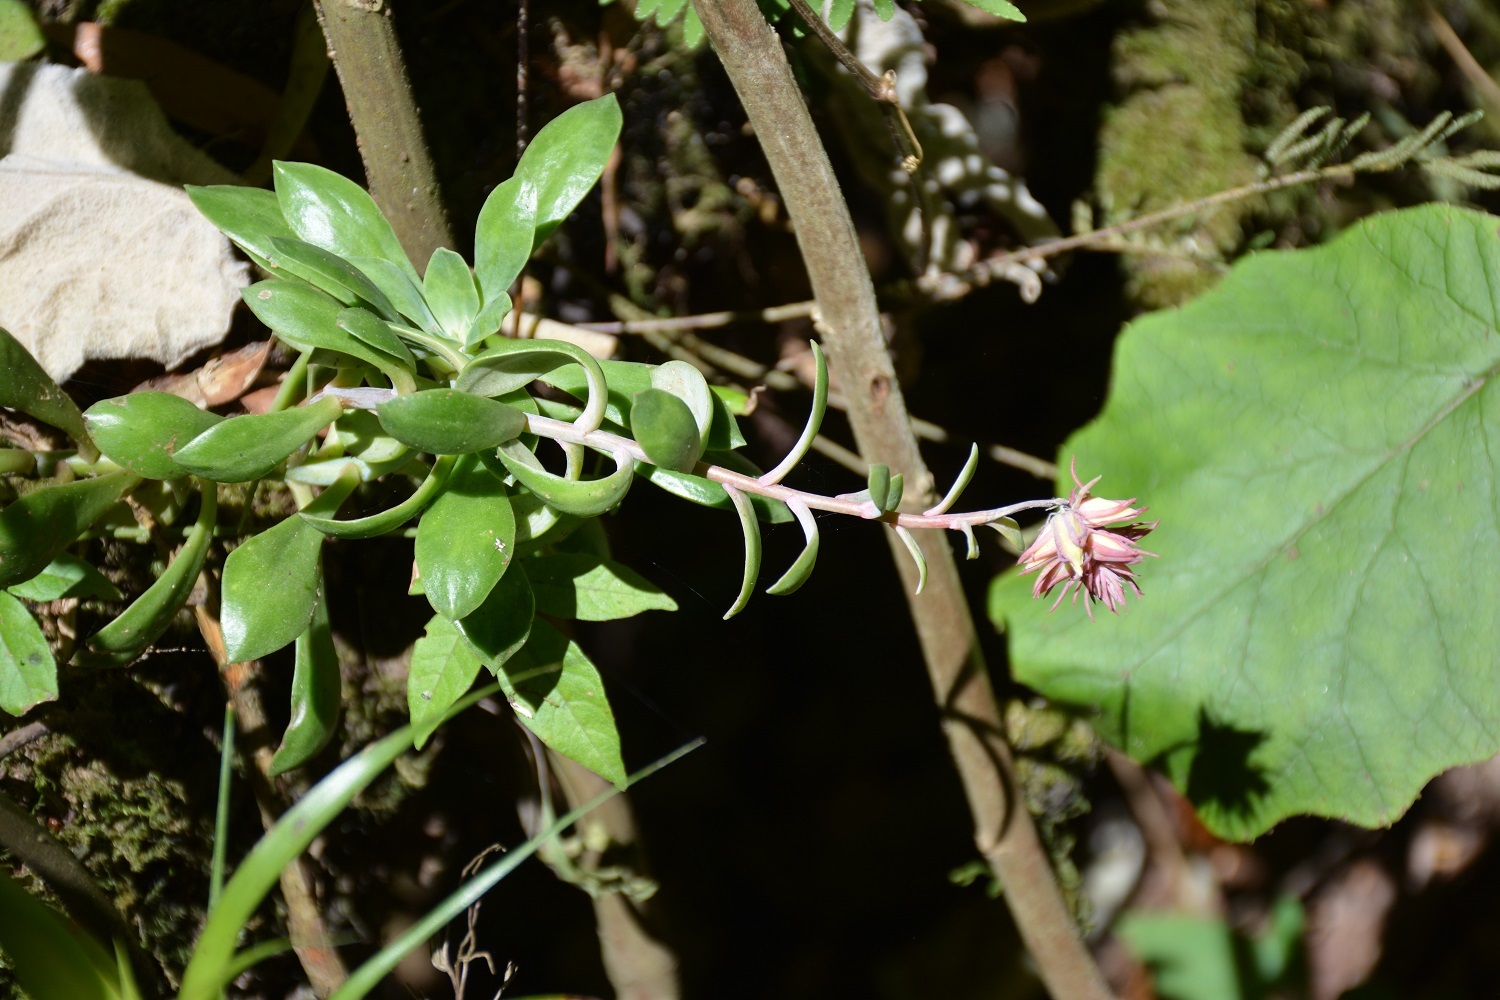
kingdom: Plantae
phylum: Tracheophyta
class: Magnoliopsida
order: Saxifragales
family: Crassulaceae
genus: Echeveria
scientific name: Echeveria rosea
